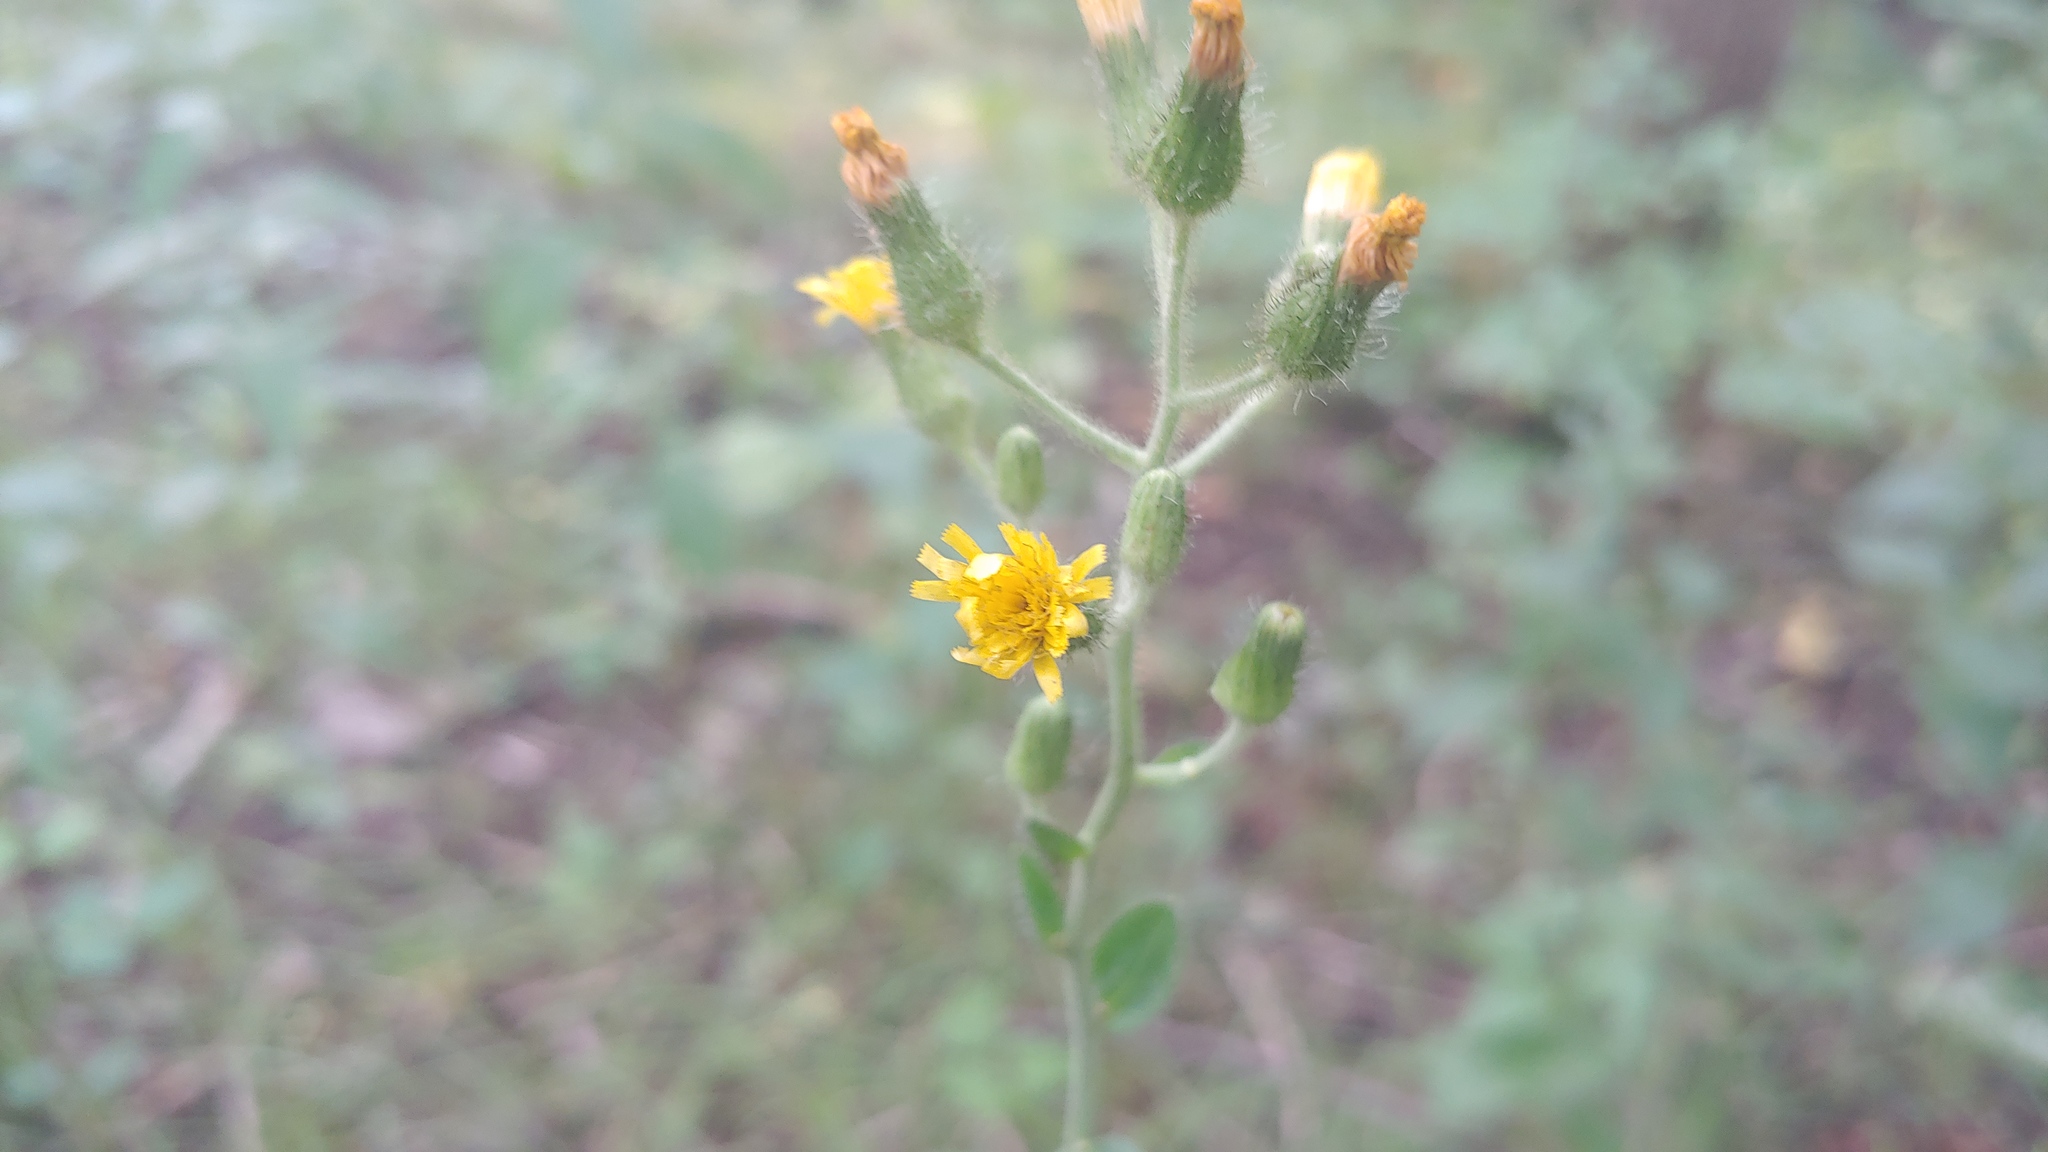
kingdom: Plantae
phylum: Tracheophyta
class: Magnoliopsida
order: Asterales
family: Asteraceae
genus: Hieracium
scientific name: Hieracium scabrum
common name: Rough hawkweed
